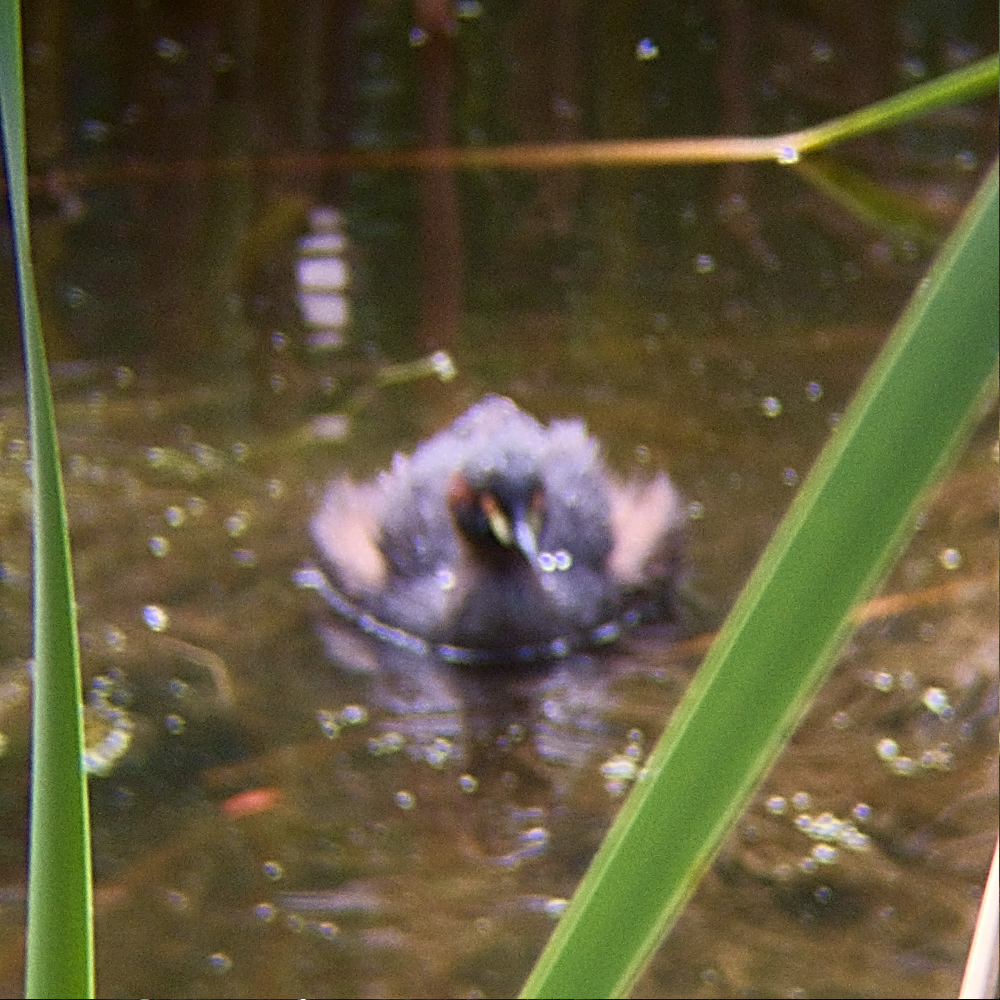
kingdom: Animalia
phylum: Chordata
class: Aves
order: Podicipediformes
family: Podicipedidae
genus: Tachybaptus
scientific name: Tachybaptus novaehollandiae
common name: Australasian grebe
